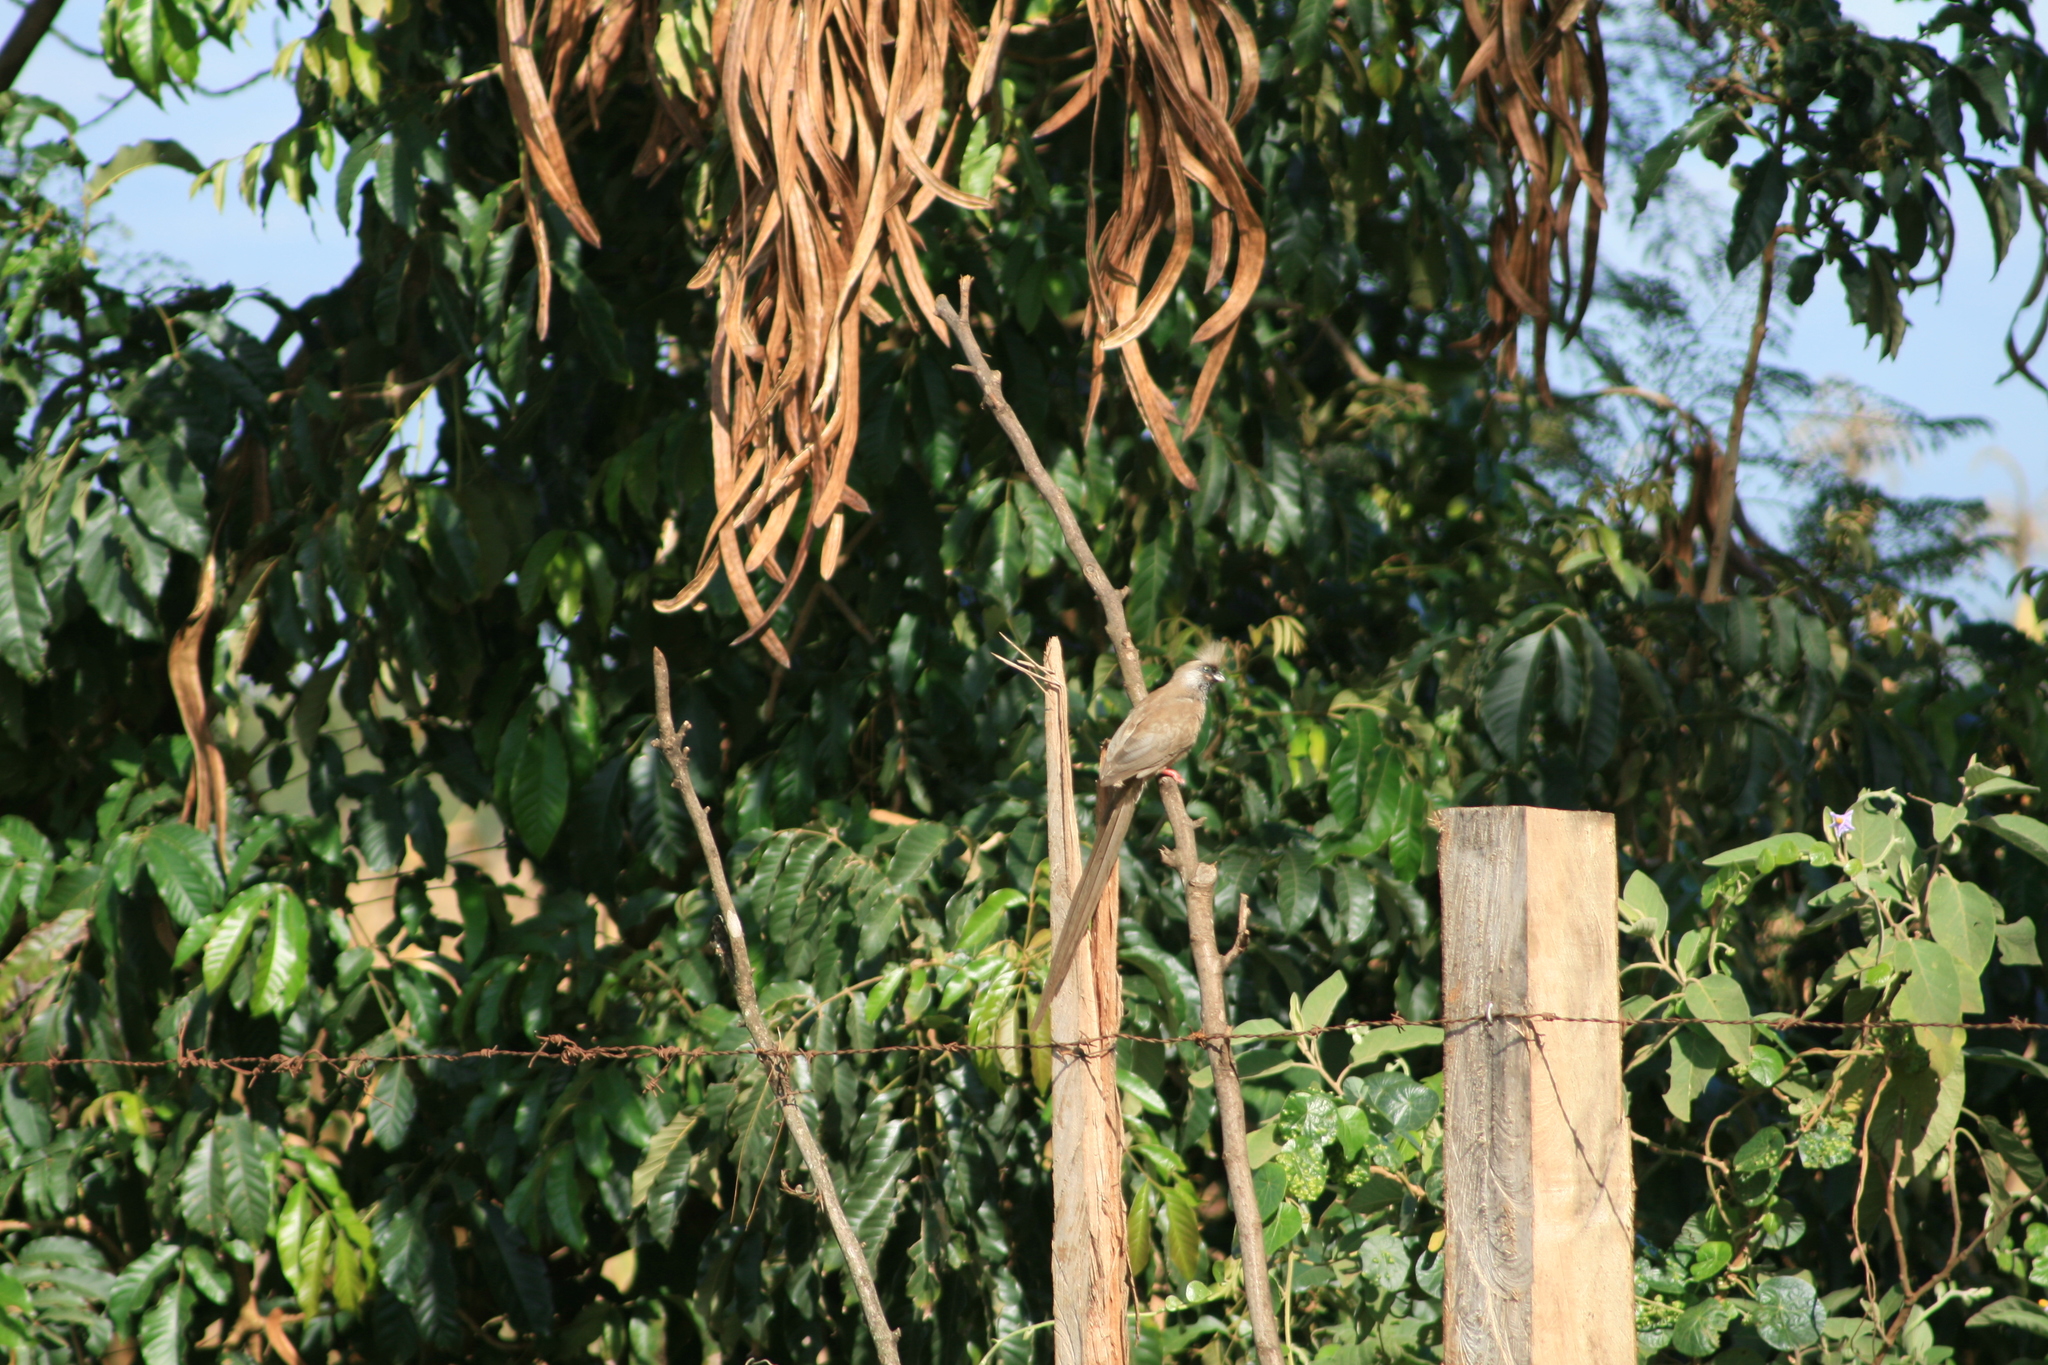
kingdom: Animalia
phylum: Chordata
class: Aves
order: Coliiformes
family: Coliidae
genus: Colius
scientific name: Colius striatus
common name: Speckled mousebird
